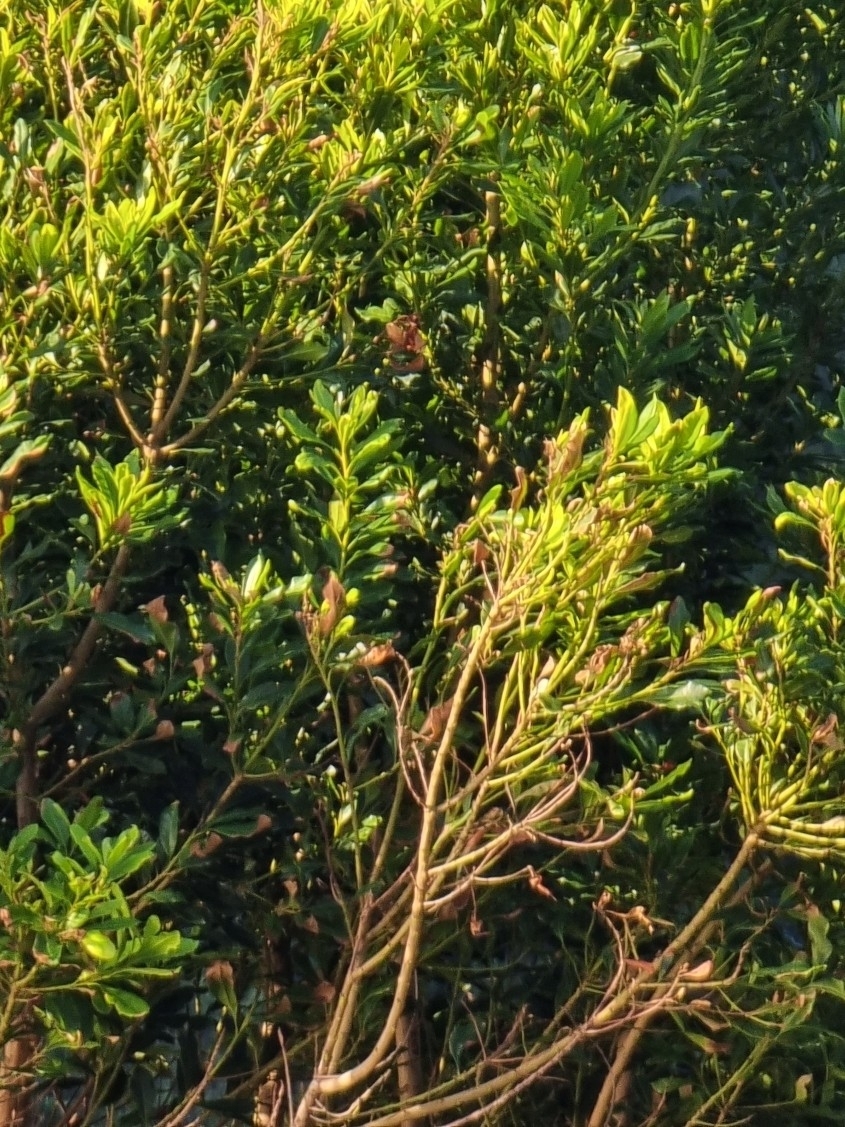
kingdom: Plantae
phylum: Tracheophyta
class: Magnoliopsida
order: Fagales
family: Myricaceae
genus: Morella
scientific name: Morella faya
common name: Firetree
